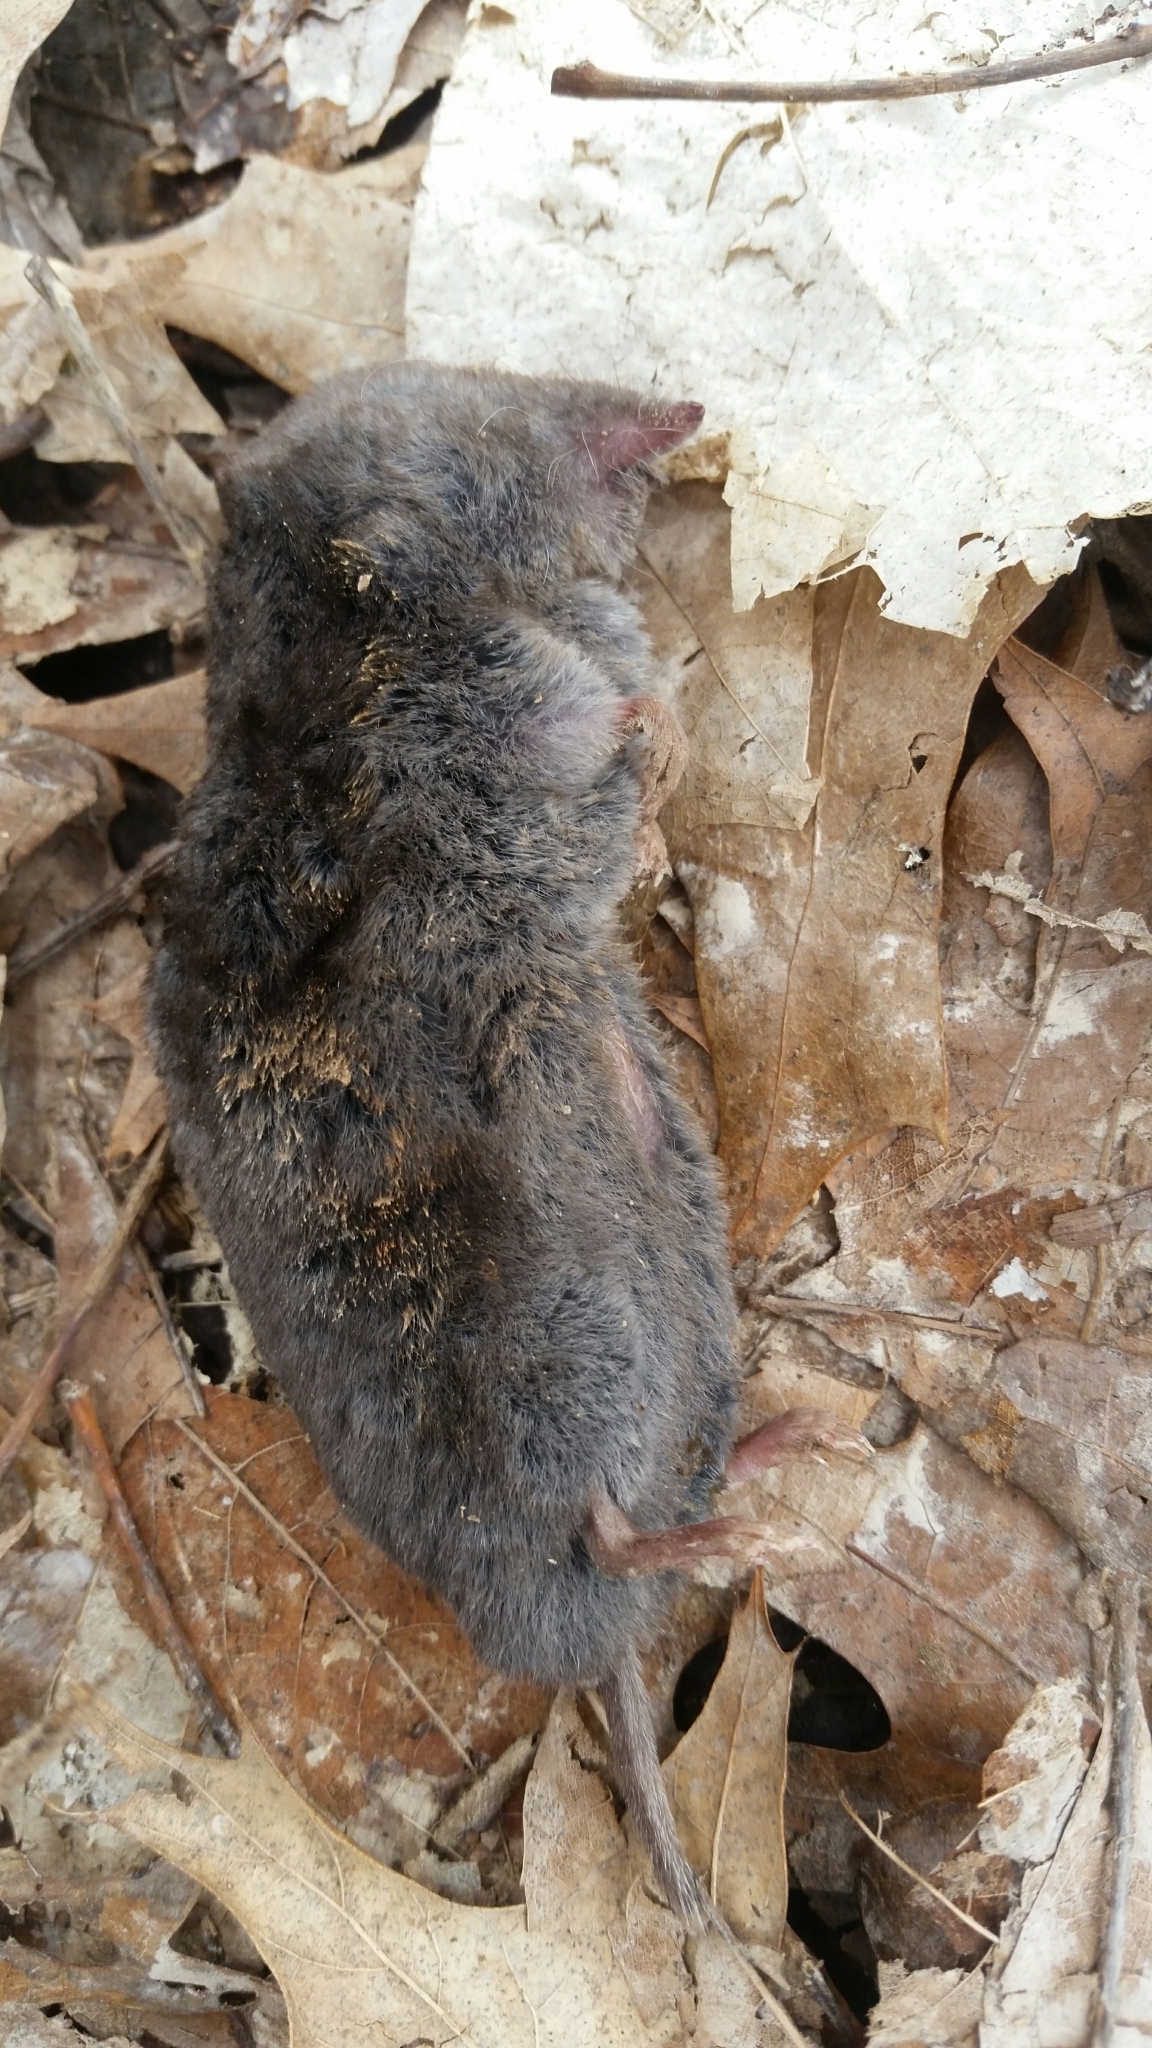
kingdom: Animalia
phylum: Chordata
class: Mammalia
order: Soricomorpha
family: Soricidae
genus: Blarina
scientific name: Blarina brevicauda
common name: Northern short-tailed shrew
